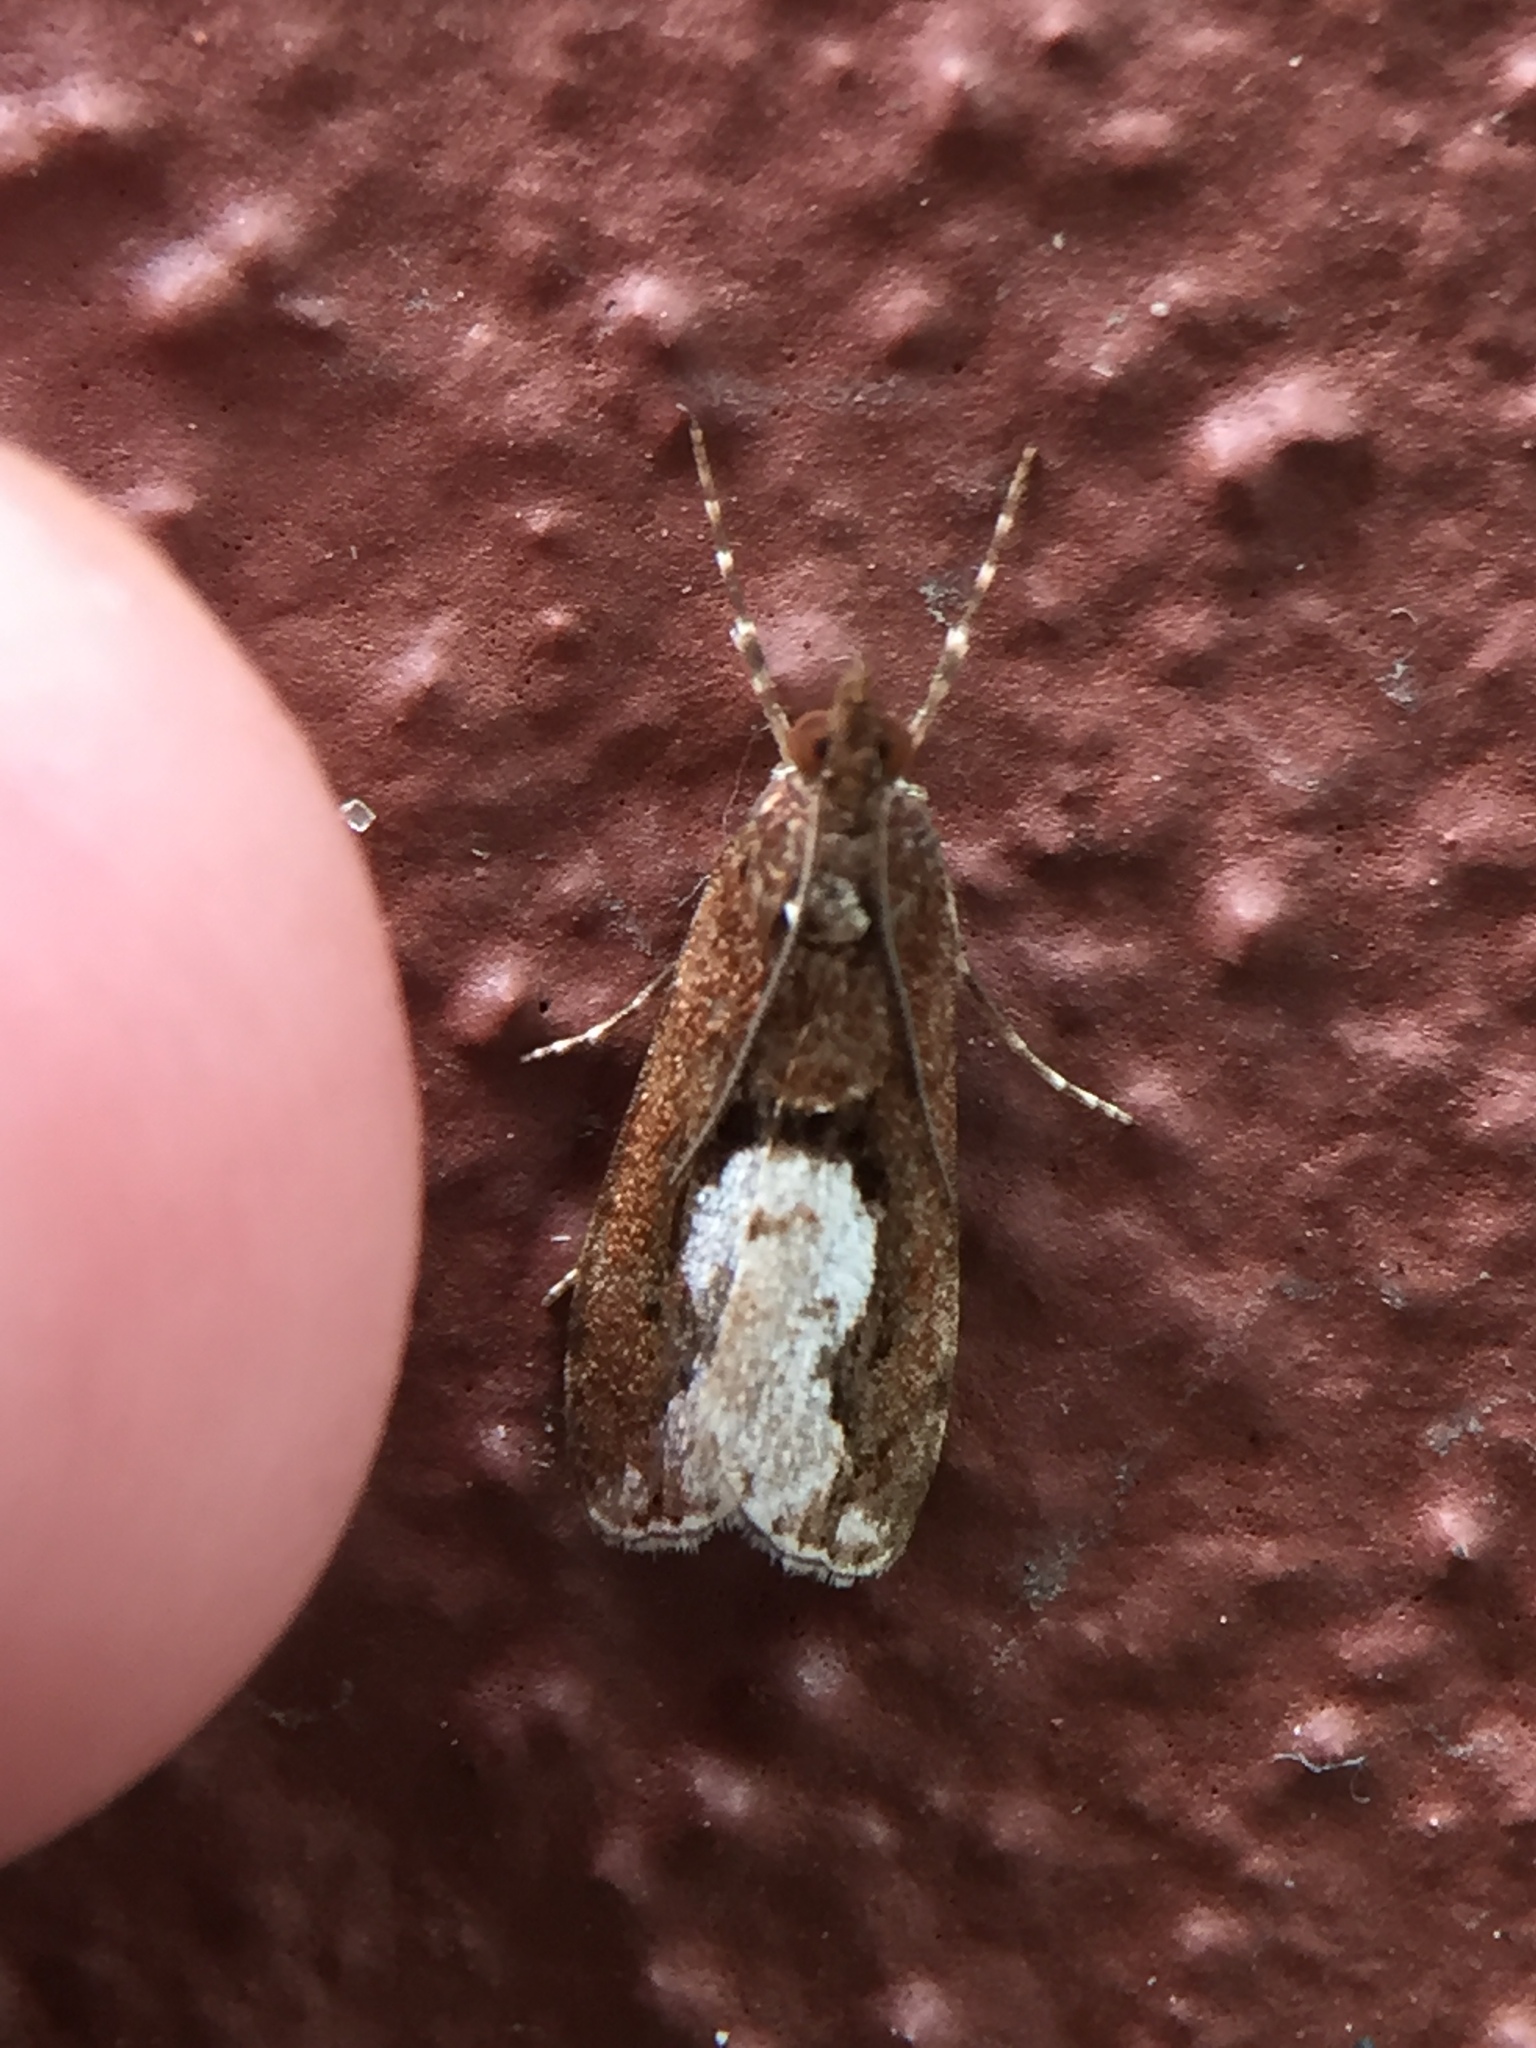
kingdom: Animalia
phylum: Arthropoda
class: Insecta
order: Lepidoptera
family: Crambidae
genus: Eudonia
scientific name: Eudonia hemiplaca
